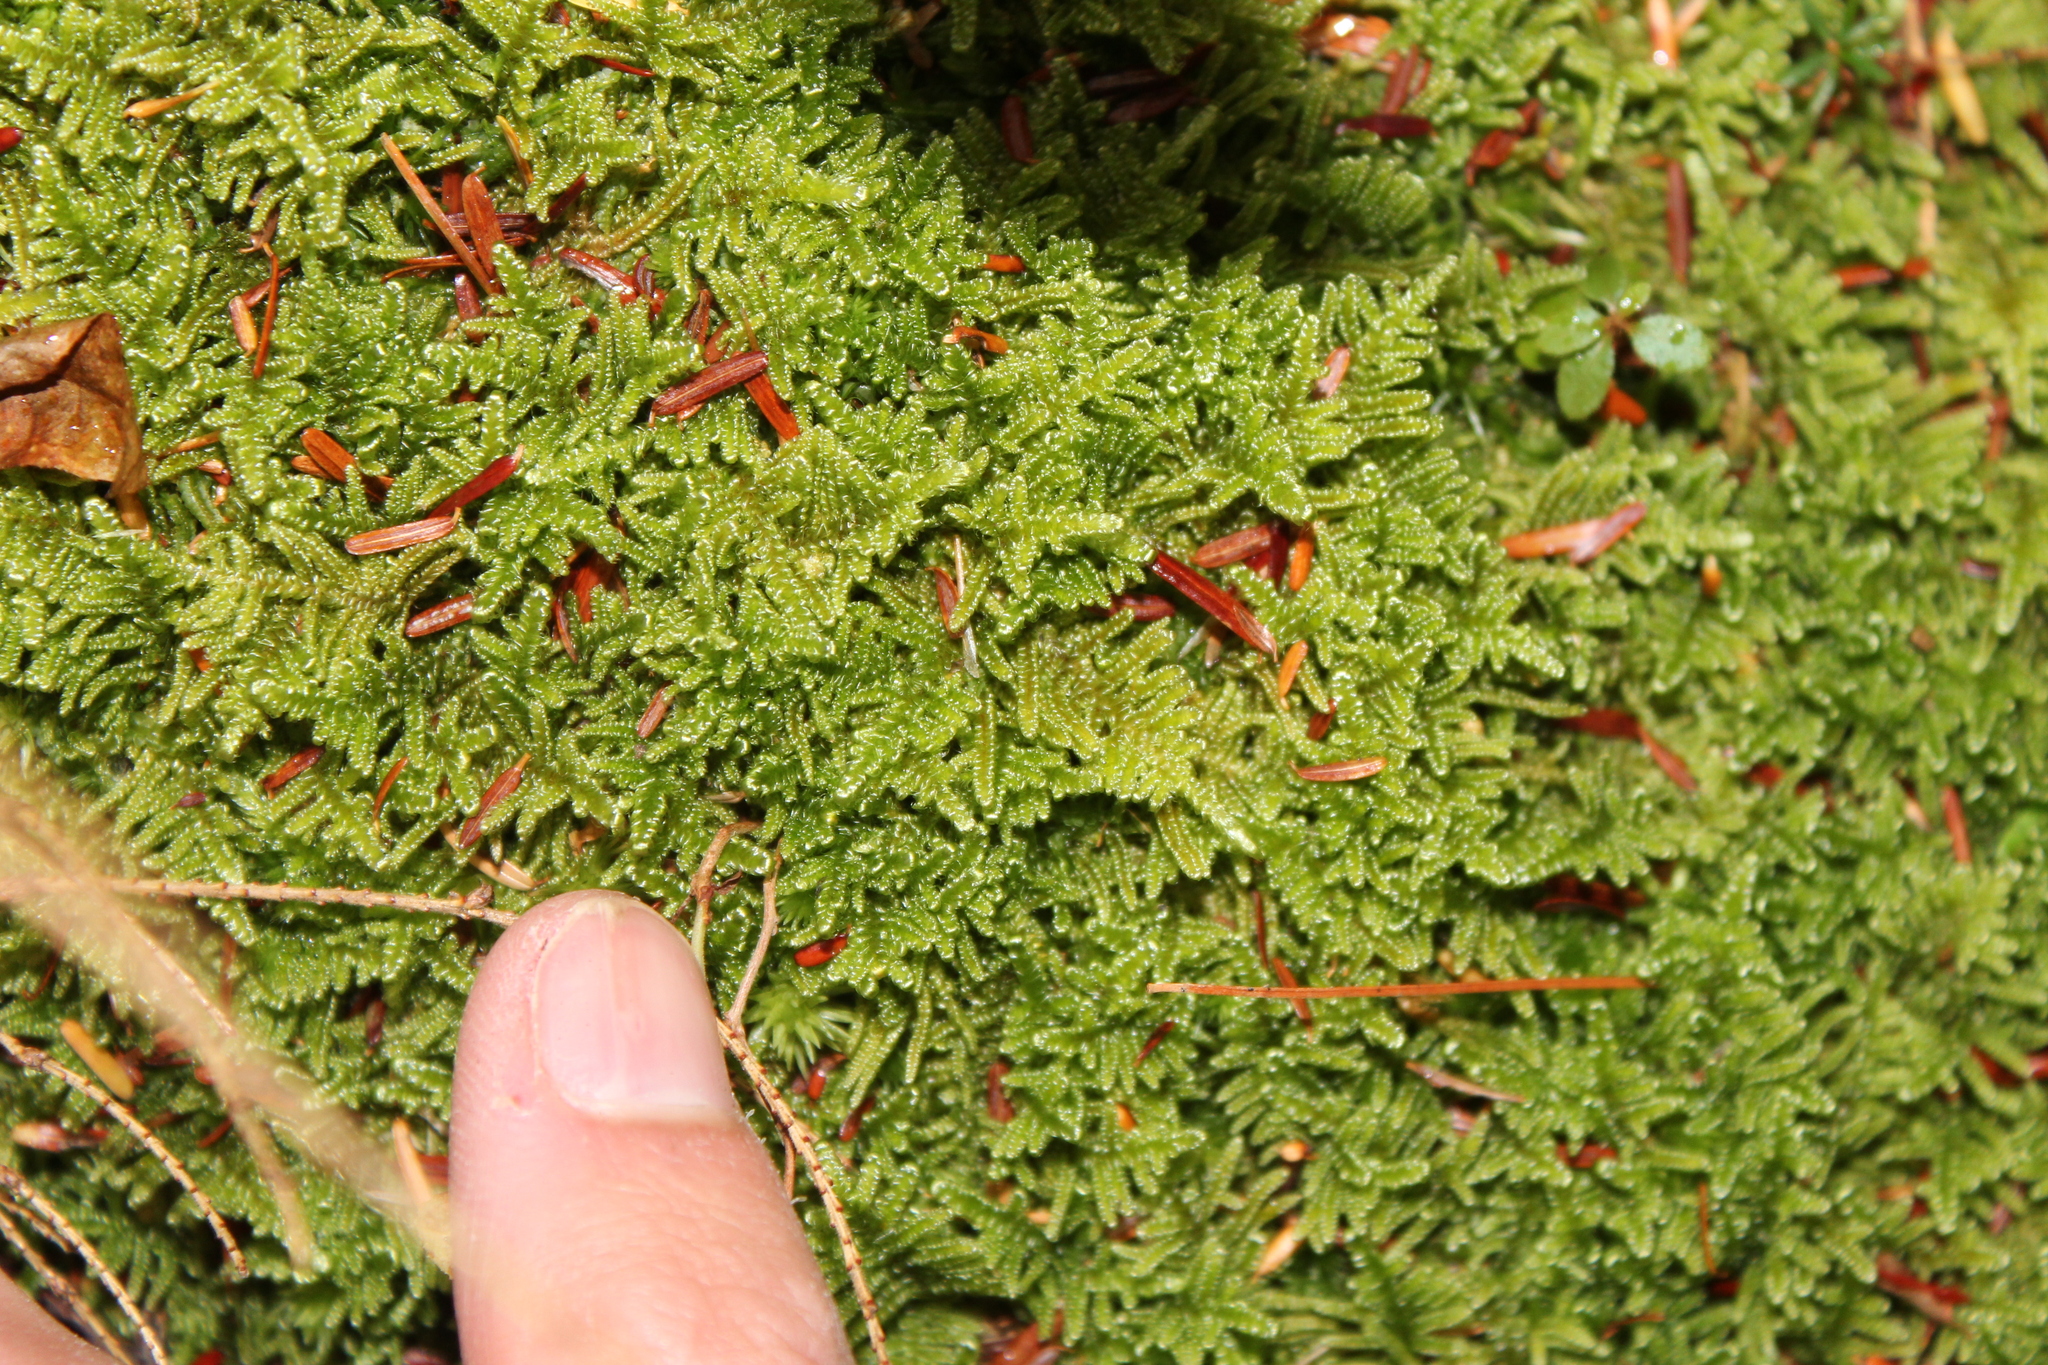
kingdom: Plantae
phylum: Bryophyta
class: Bryopsida
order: Hypnales
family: Callicladiaceae
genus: Callicladium
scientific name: Callicladium imponens
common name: Brocade moss
